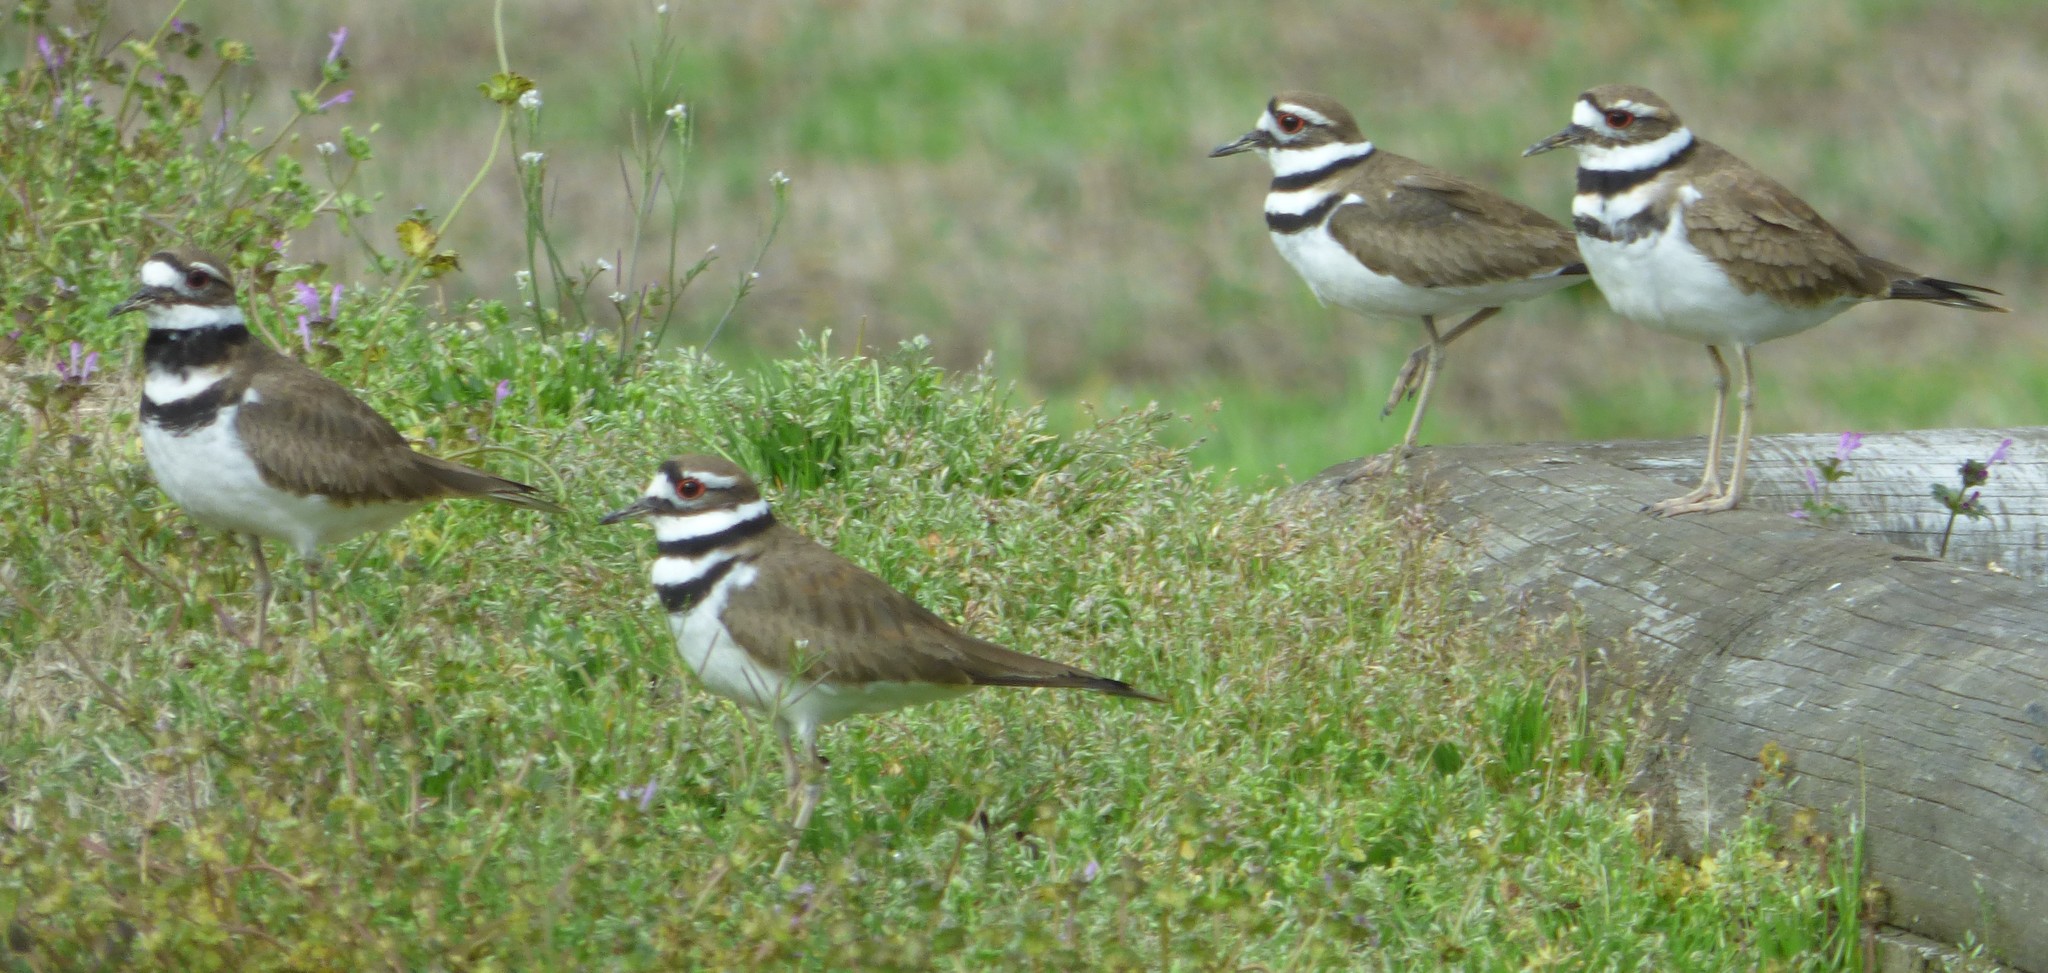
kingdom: Animalia
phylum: Chordata
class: Aves
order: Charadriiformes
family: Charadriidae
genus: Charadrius
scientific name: Charadrius vociferus
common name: Killdeer
